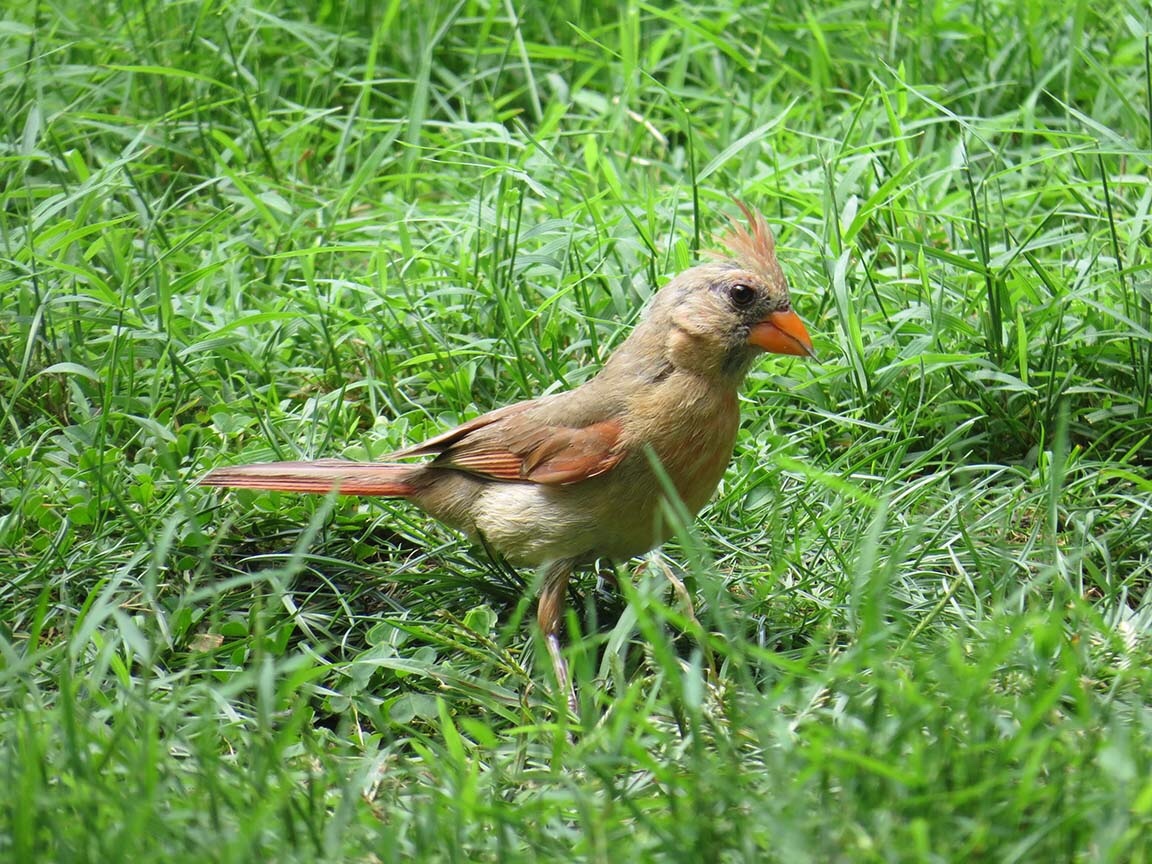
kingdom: Animalia
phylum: Chordata
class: Aves
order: Passeriformes
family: Cardinalidae
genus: Cardinalis
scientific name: Cardinalis cardinalis
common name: Northern cardinal
